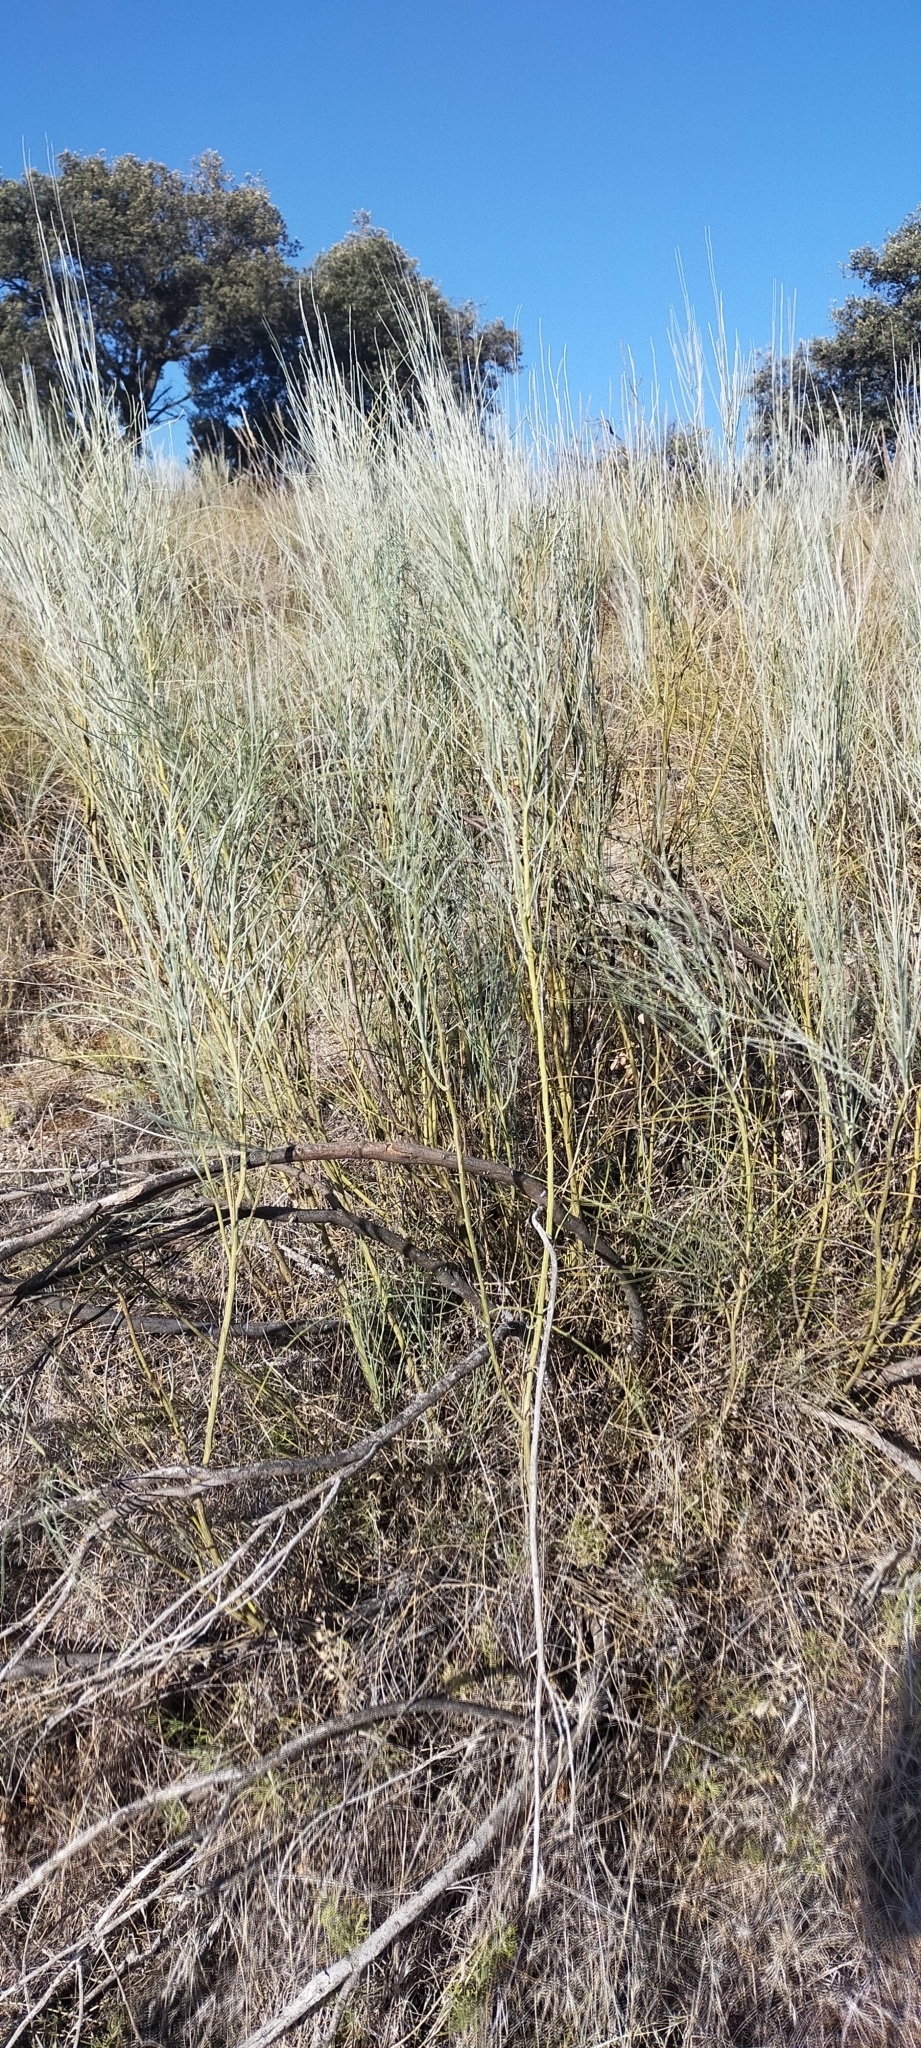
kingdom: Plantae
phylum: Tracheophyta
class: Magnoliopsida
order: Fabales
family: Fabaceae
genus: Retama
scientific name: Retama sphaerocarpa
